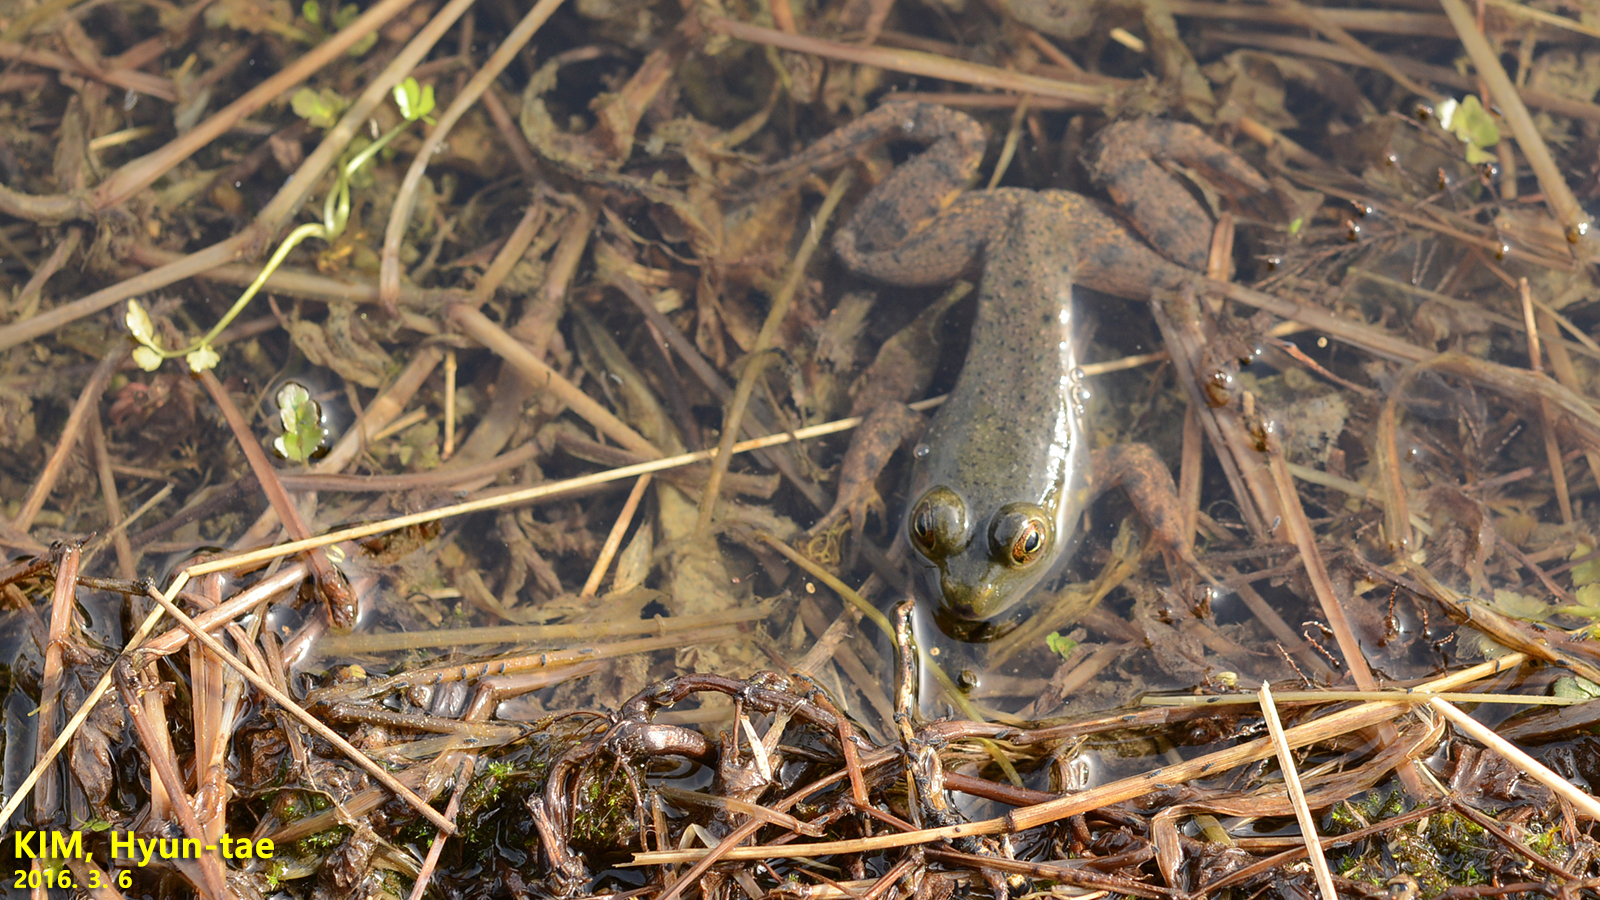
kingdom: Animalia
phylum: Chordata
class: Amphibia
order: Anura
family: Ranidae
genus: Lithobates
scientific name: Lithobates catesbeianus
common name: American bullfrog
